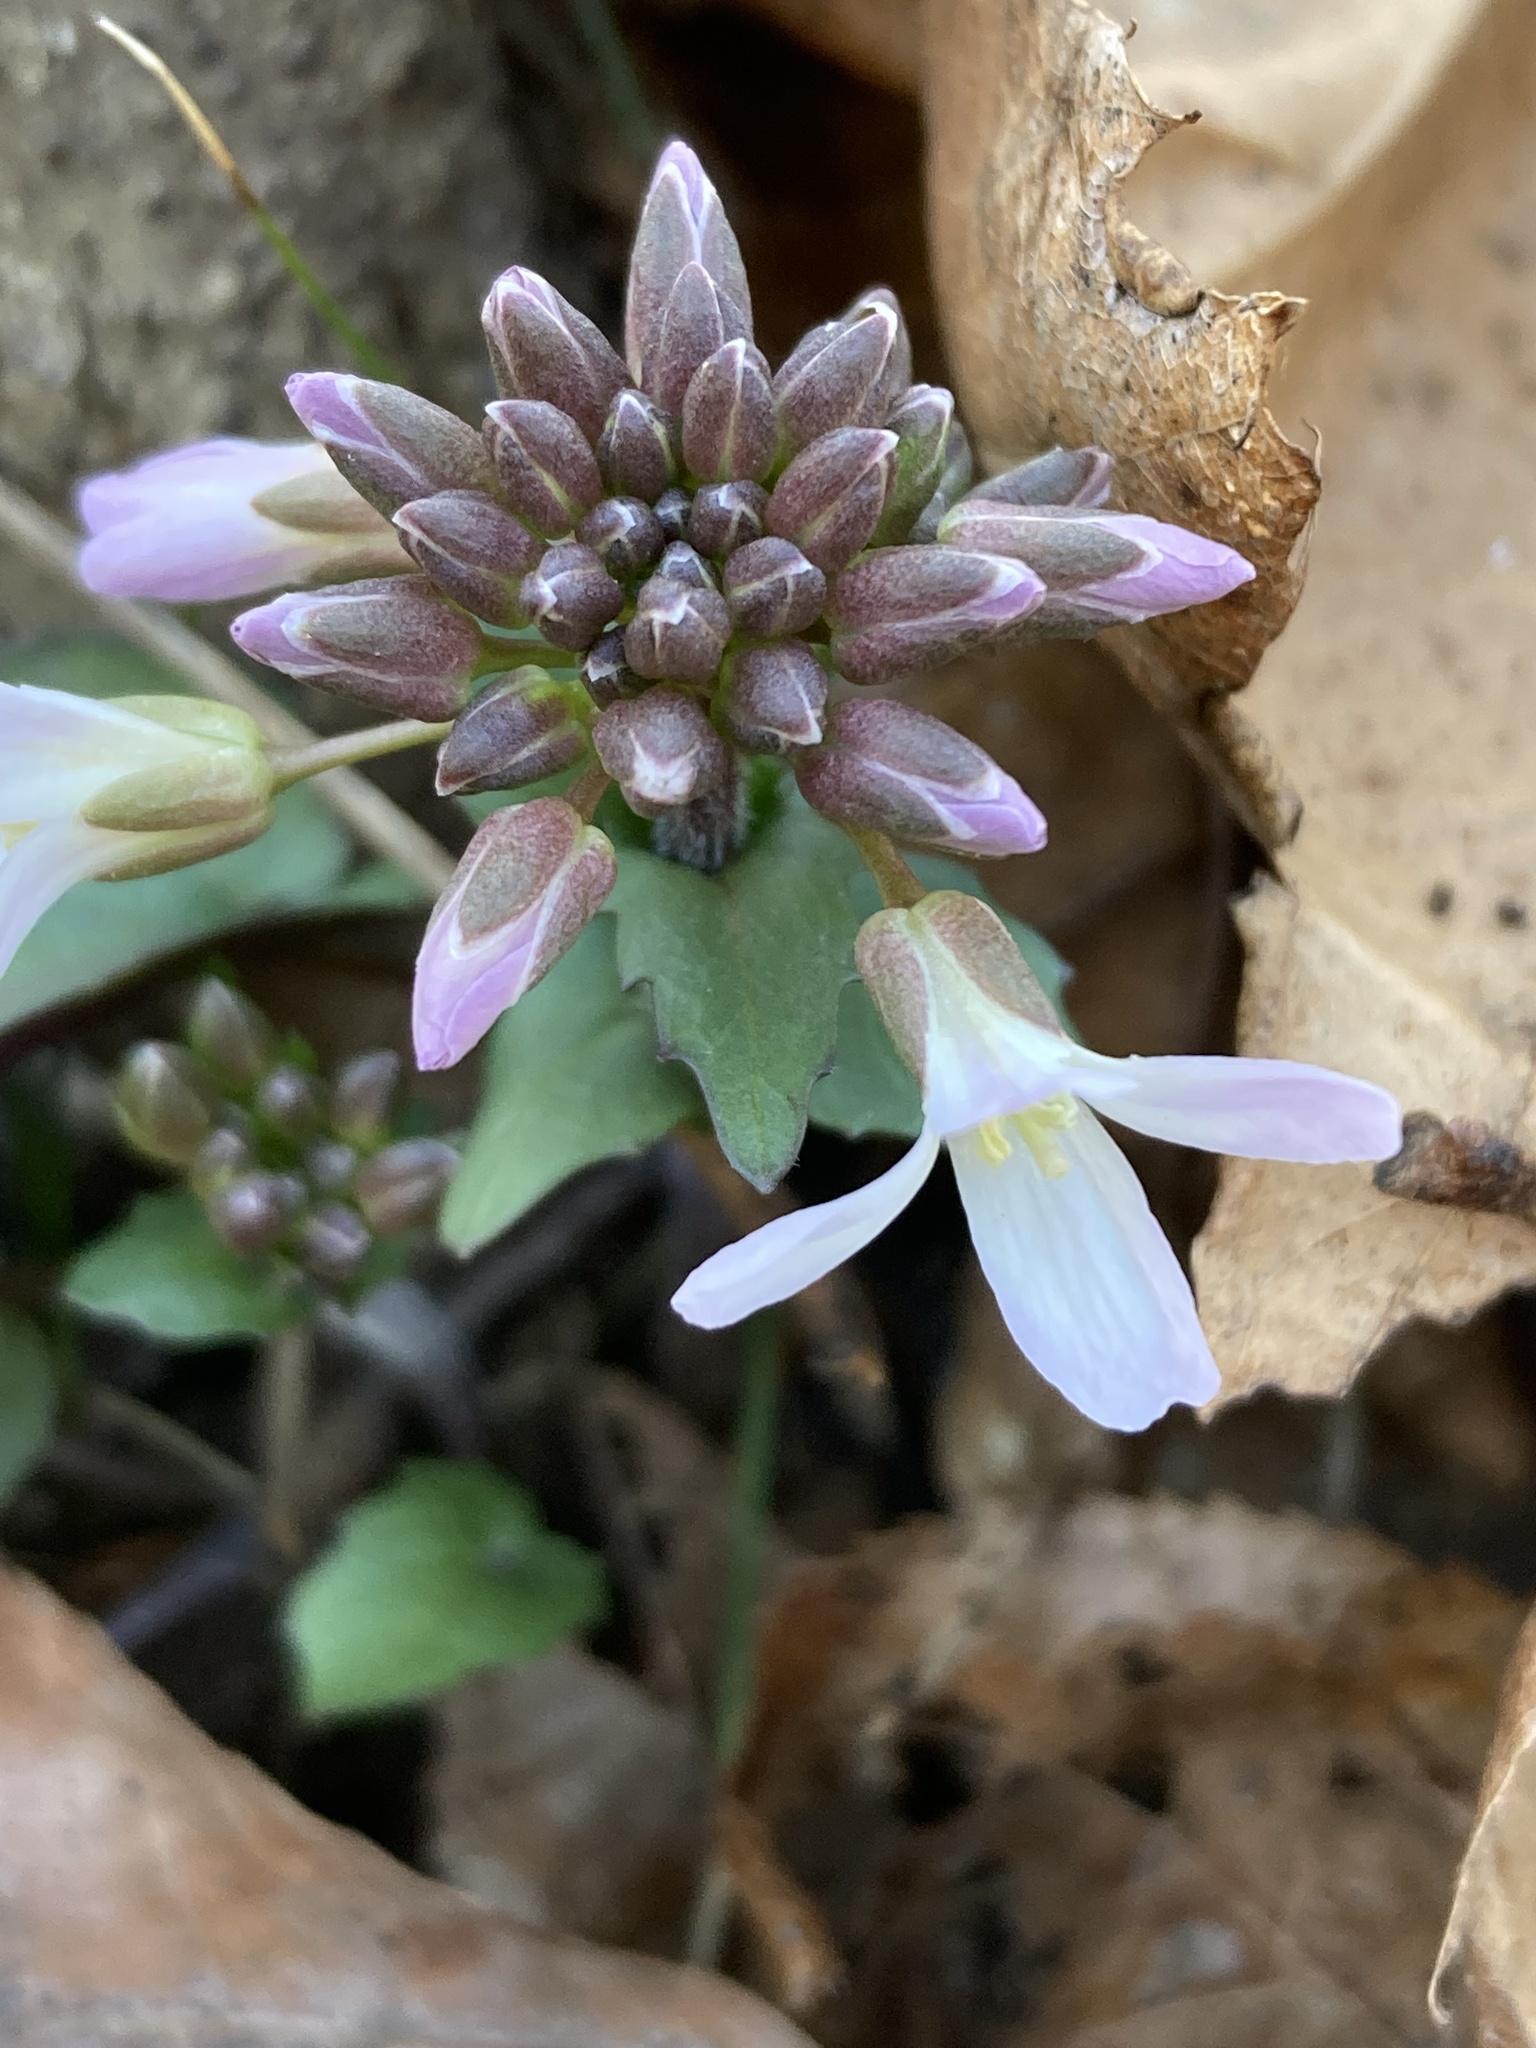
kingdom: Plantae
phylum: Tracheophyta
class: Magnoliopsida
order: Brassicales
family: Brassicaceae
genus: Cardamine
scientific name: Cardamine douglassii
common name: Purple cress
